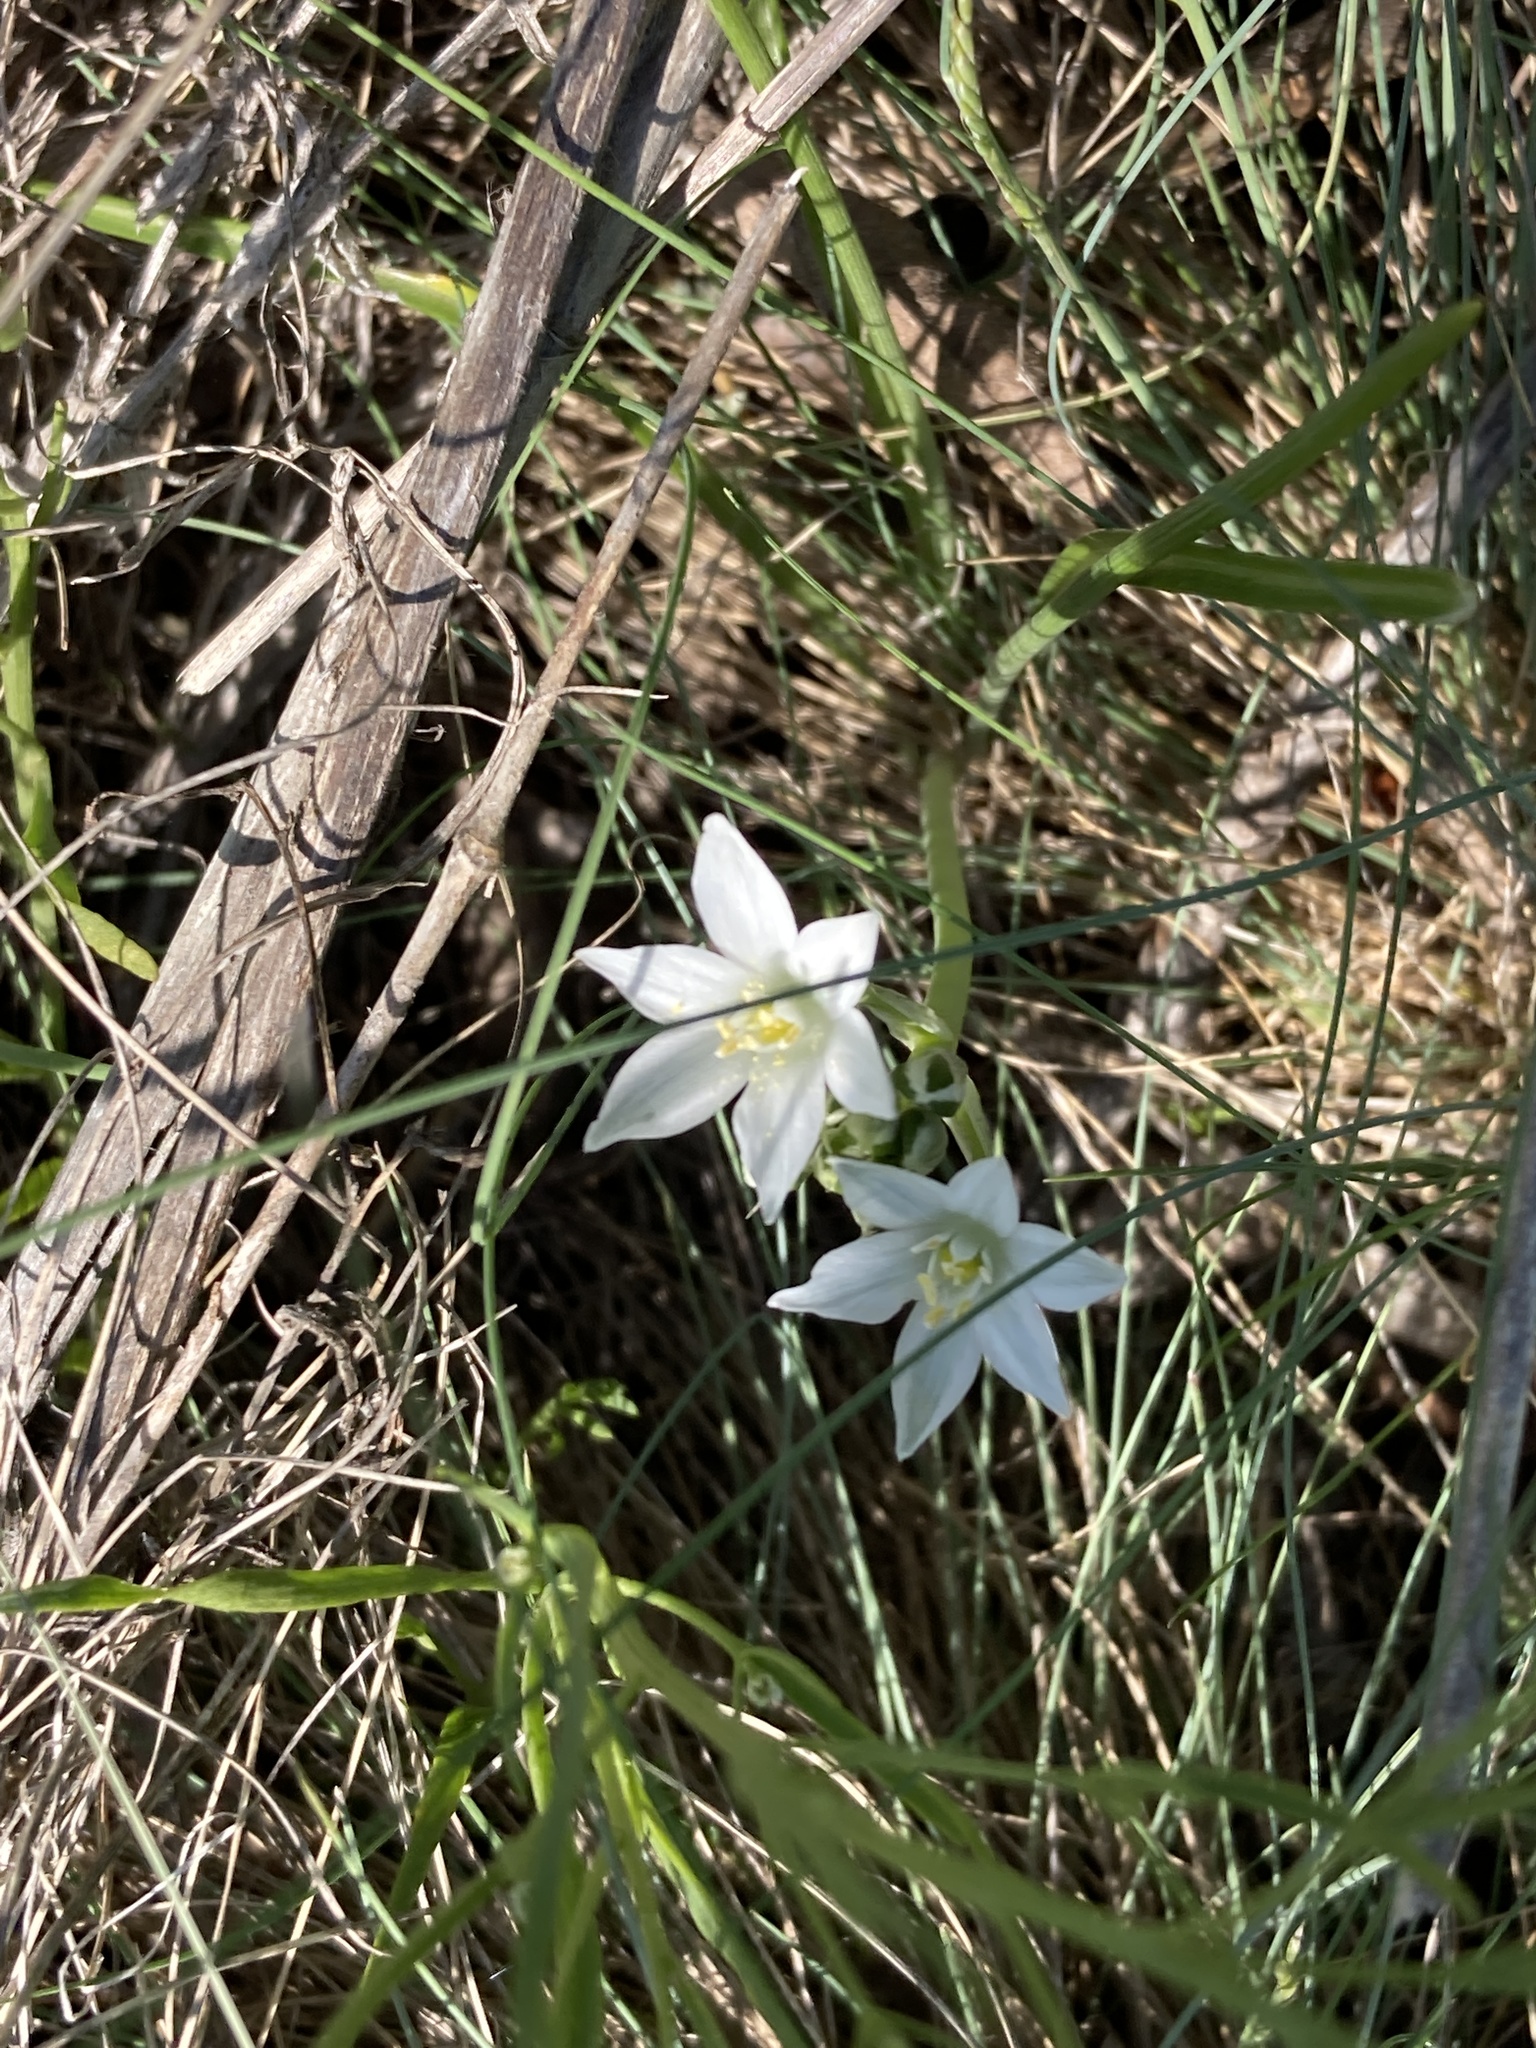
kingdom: Plantae
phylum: Tracheophyta
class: Liliopsida
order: Asparagales
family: Asparagaceae
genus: Ornithogalum
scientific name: Ornithogalum orthophyllum
